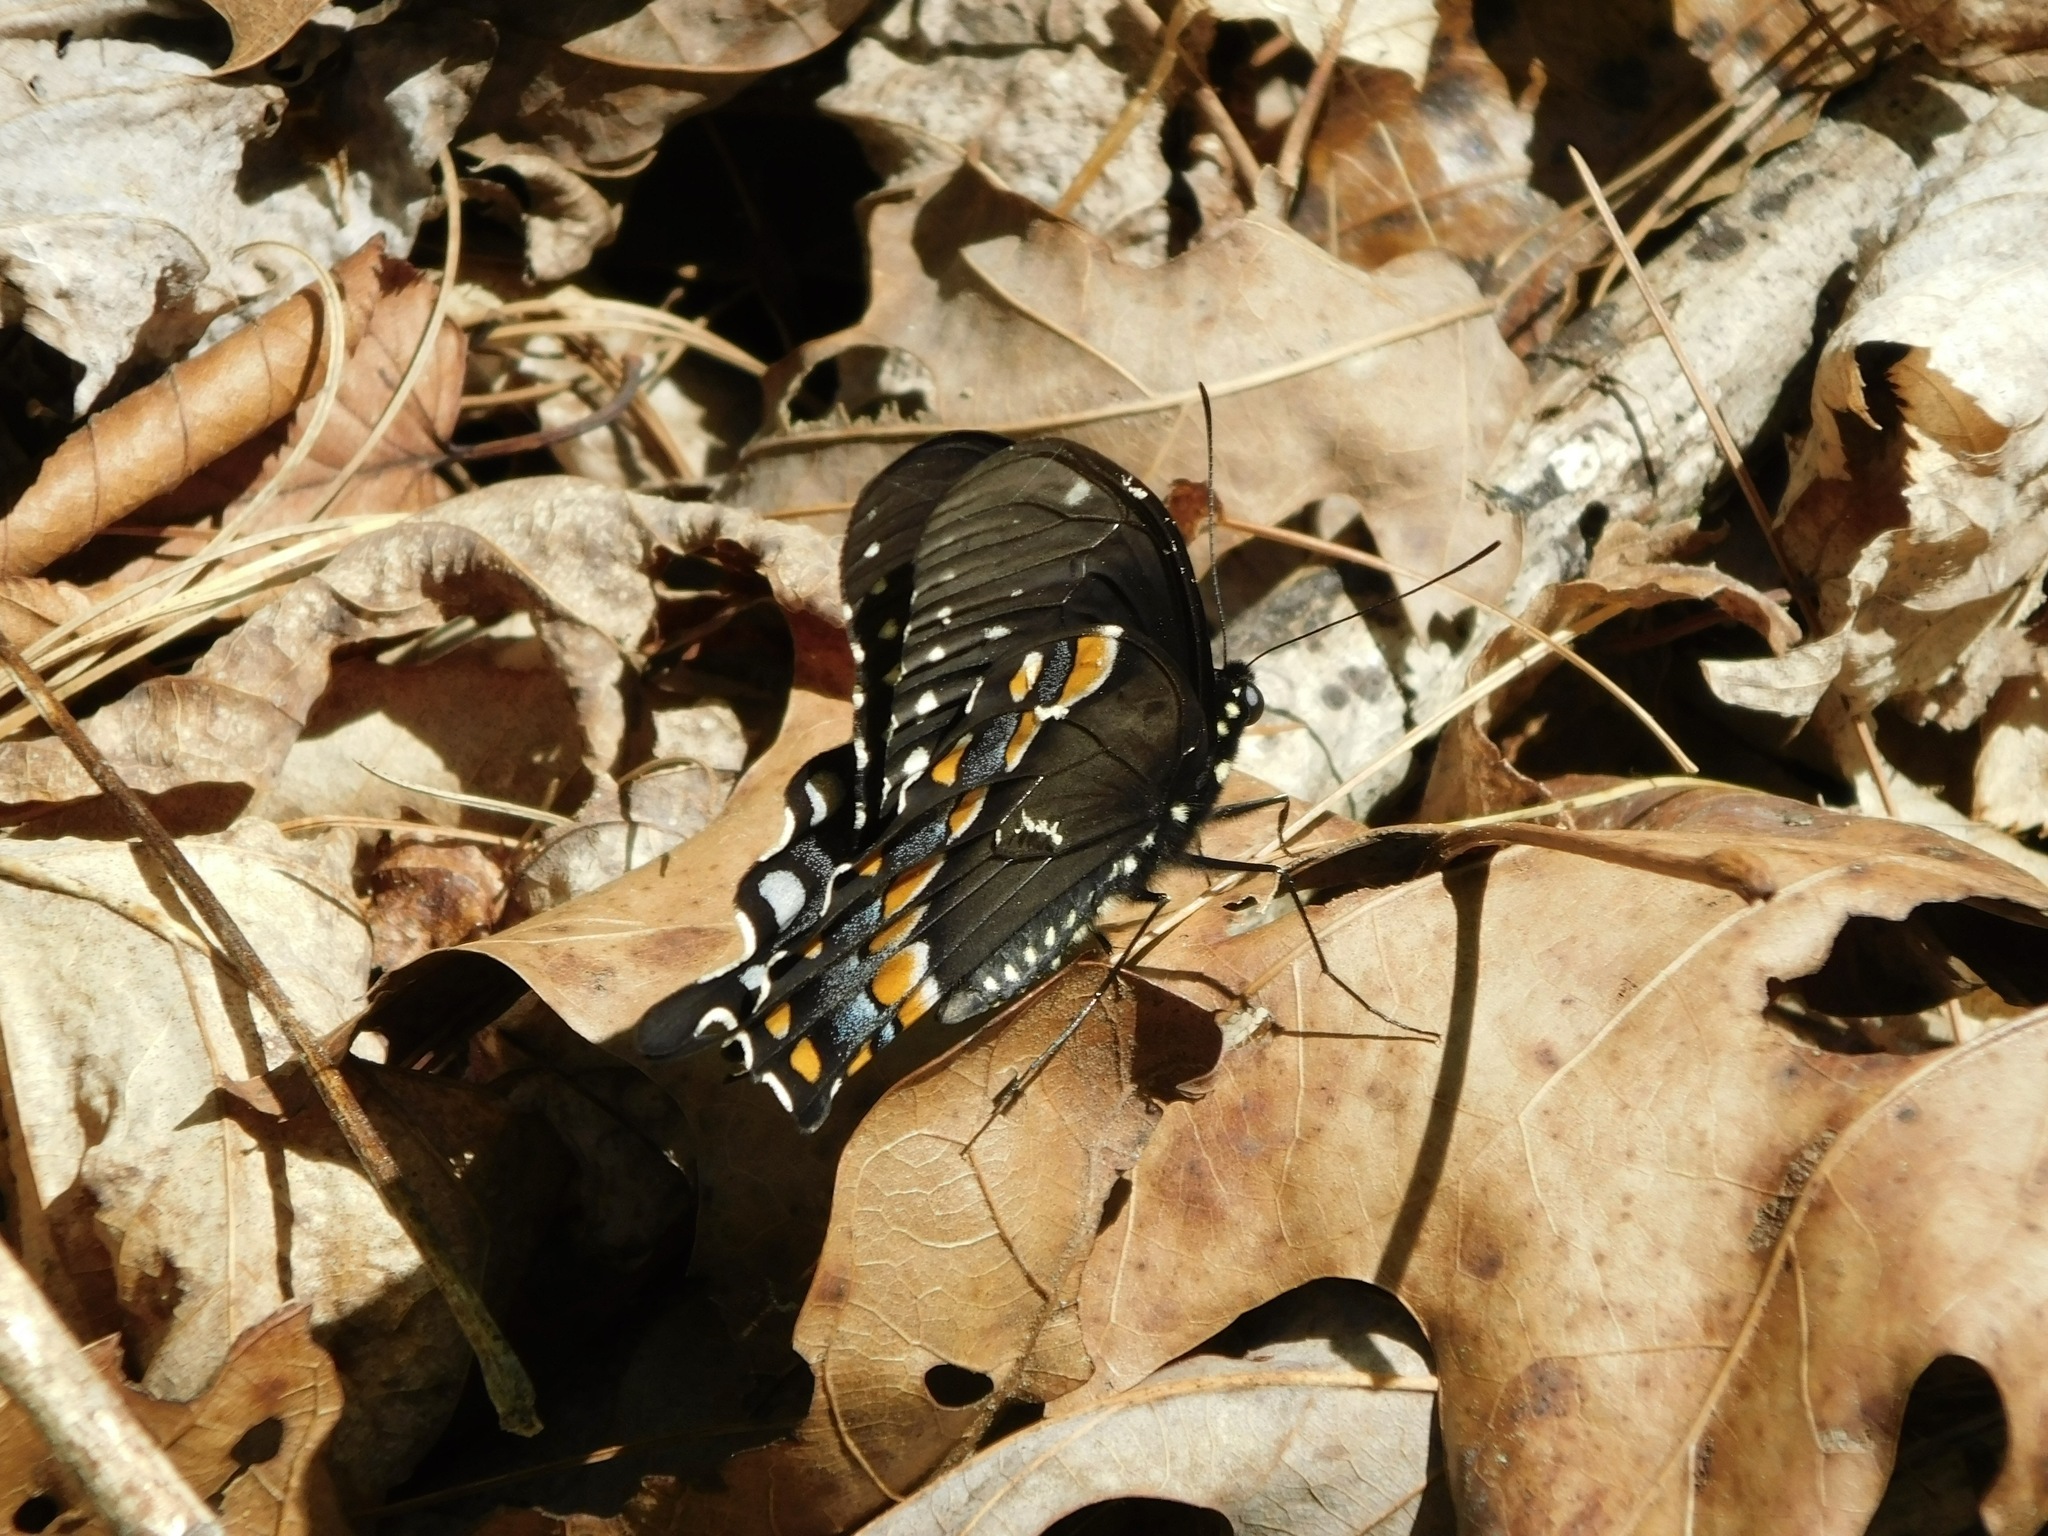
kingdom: Animalia
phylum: Arthropoda
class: Insecta
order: Lepidoptera
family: Papilionidae
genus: Papilio
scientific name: Papilio troilus
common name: Spicebush swallowtail
